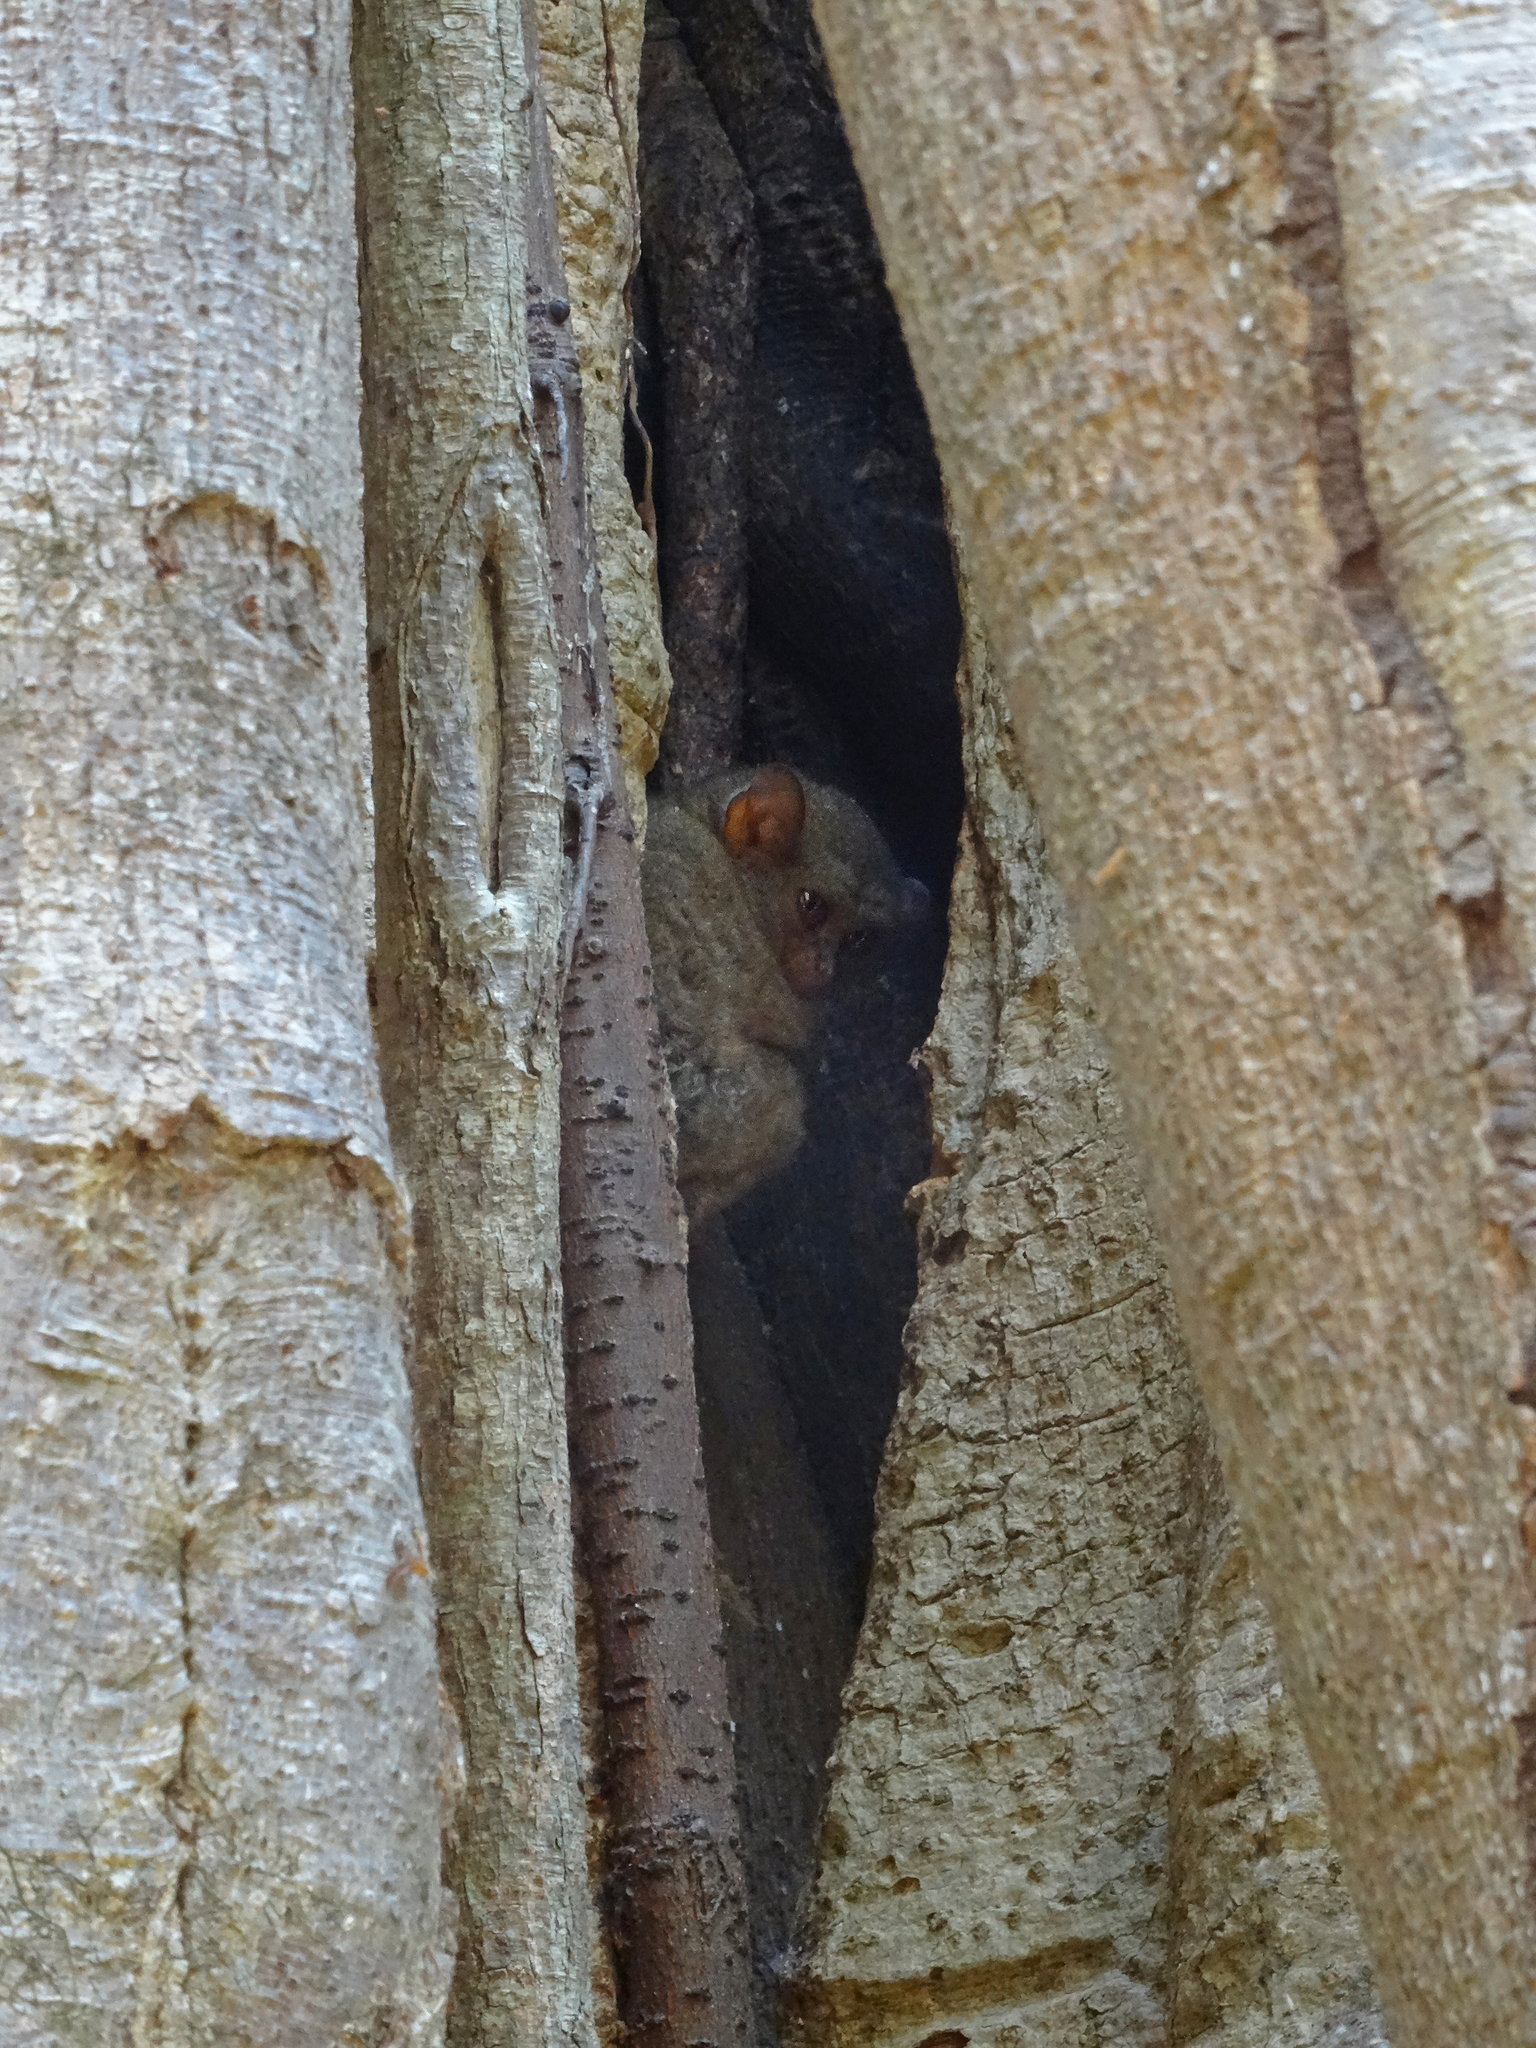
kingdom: Animalia
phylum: Chordata
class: Mammalia
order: Primates
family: Tarsiidae
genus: Tarsius
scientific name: Tarsius spectrumgurskyae
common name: Gursky's spectral tarsier
